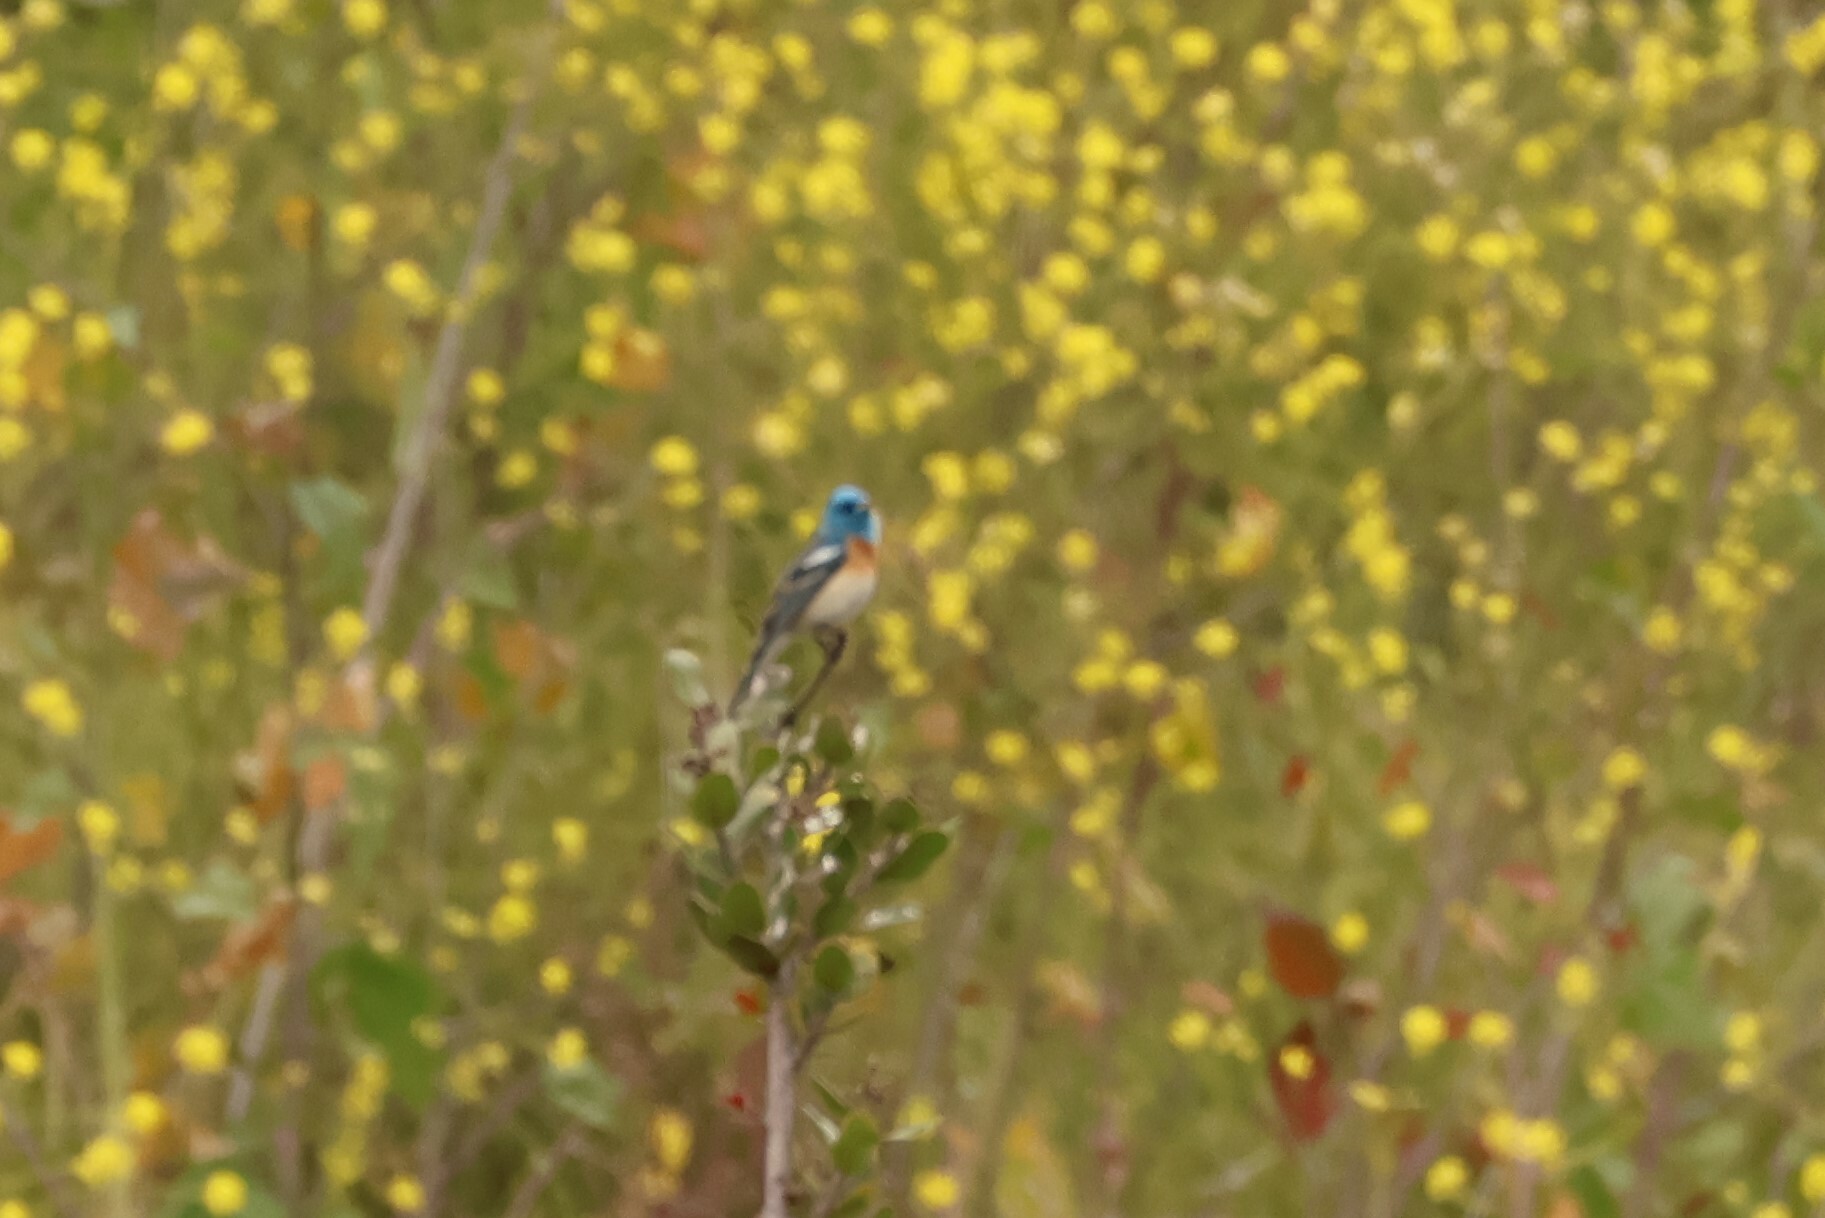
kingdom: Animalia
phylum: Chordata
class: Aves
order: Passeriformes
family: Cardinalidae
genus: Passerina
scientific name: Passerina amoena
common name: Lazuli bunting
